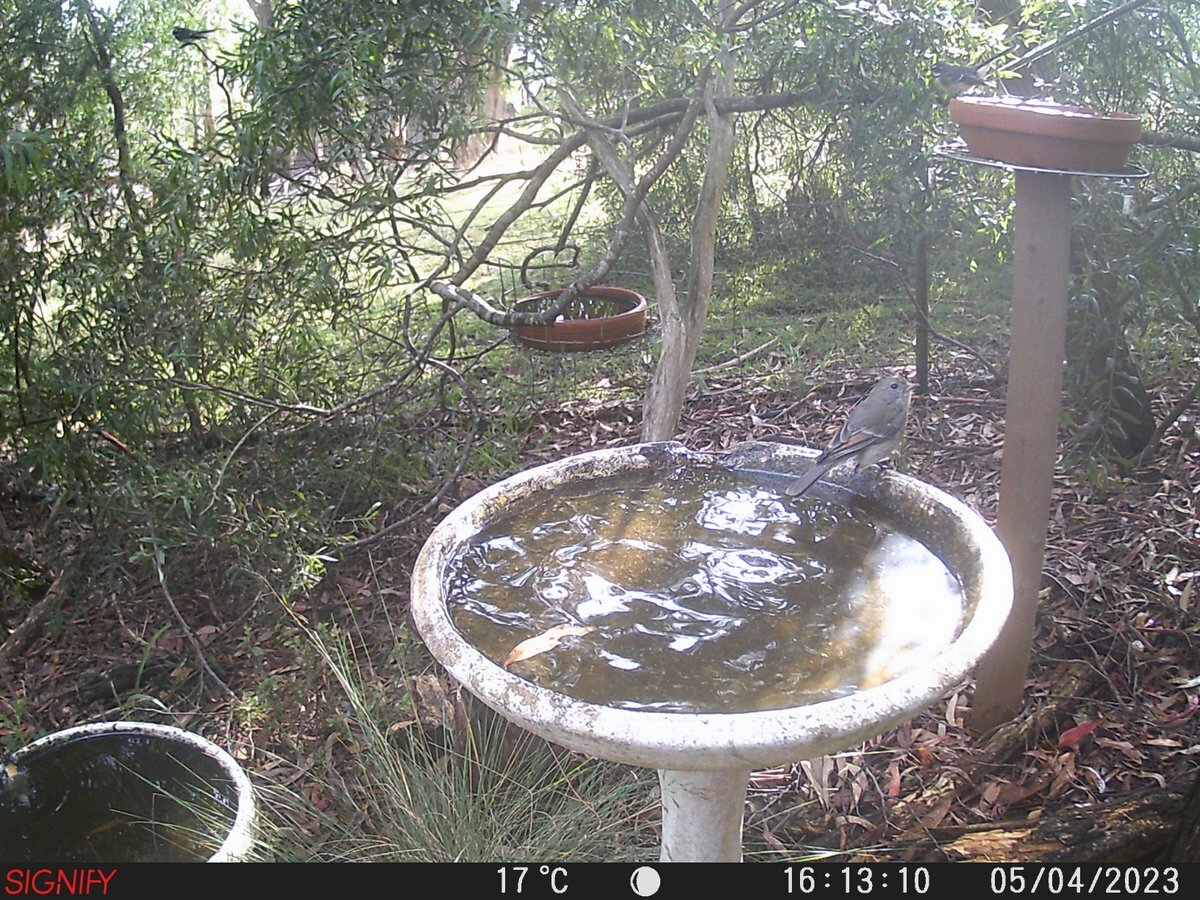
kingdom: Animalia
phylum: Chordata
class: Aves
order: Passeriformes
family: Pachycephalidae
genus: Pachycephala
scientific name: Pachycephala pectoralis
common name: Australian golden whistler
